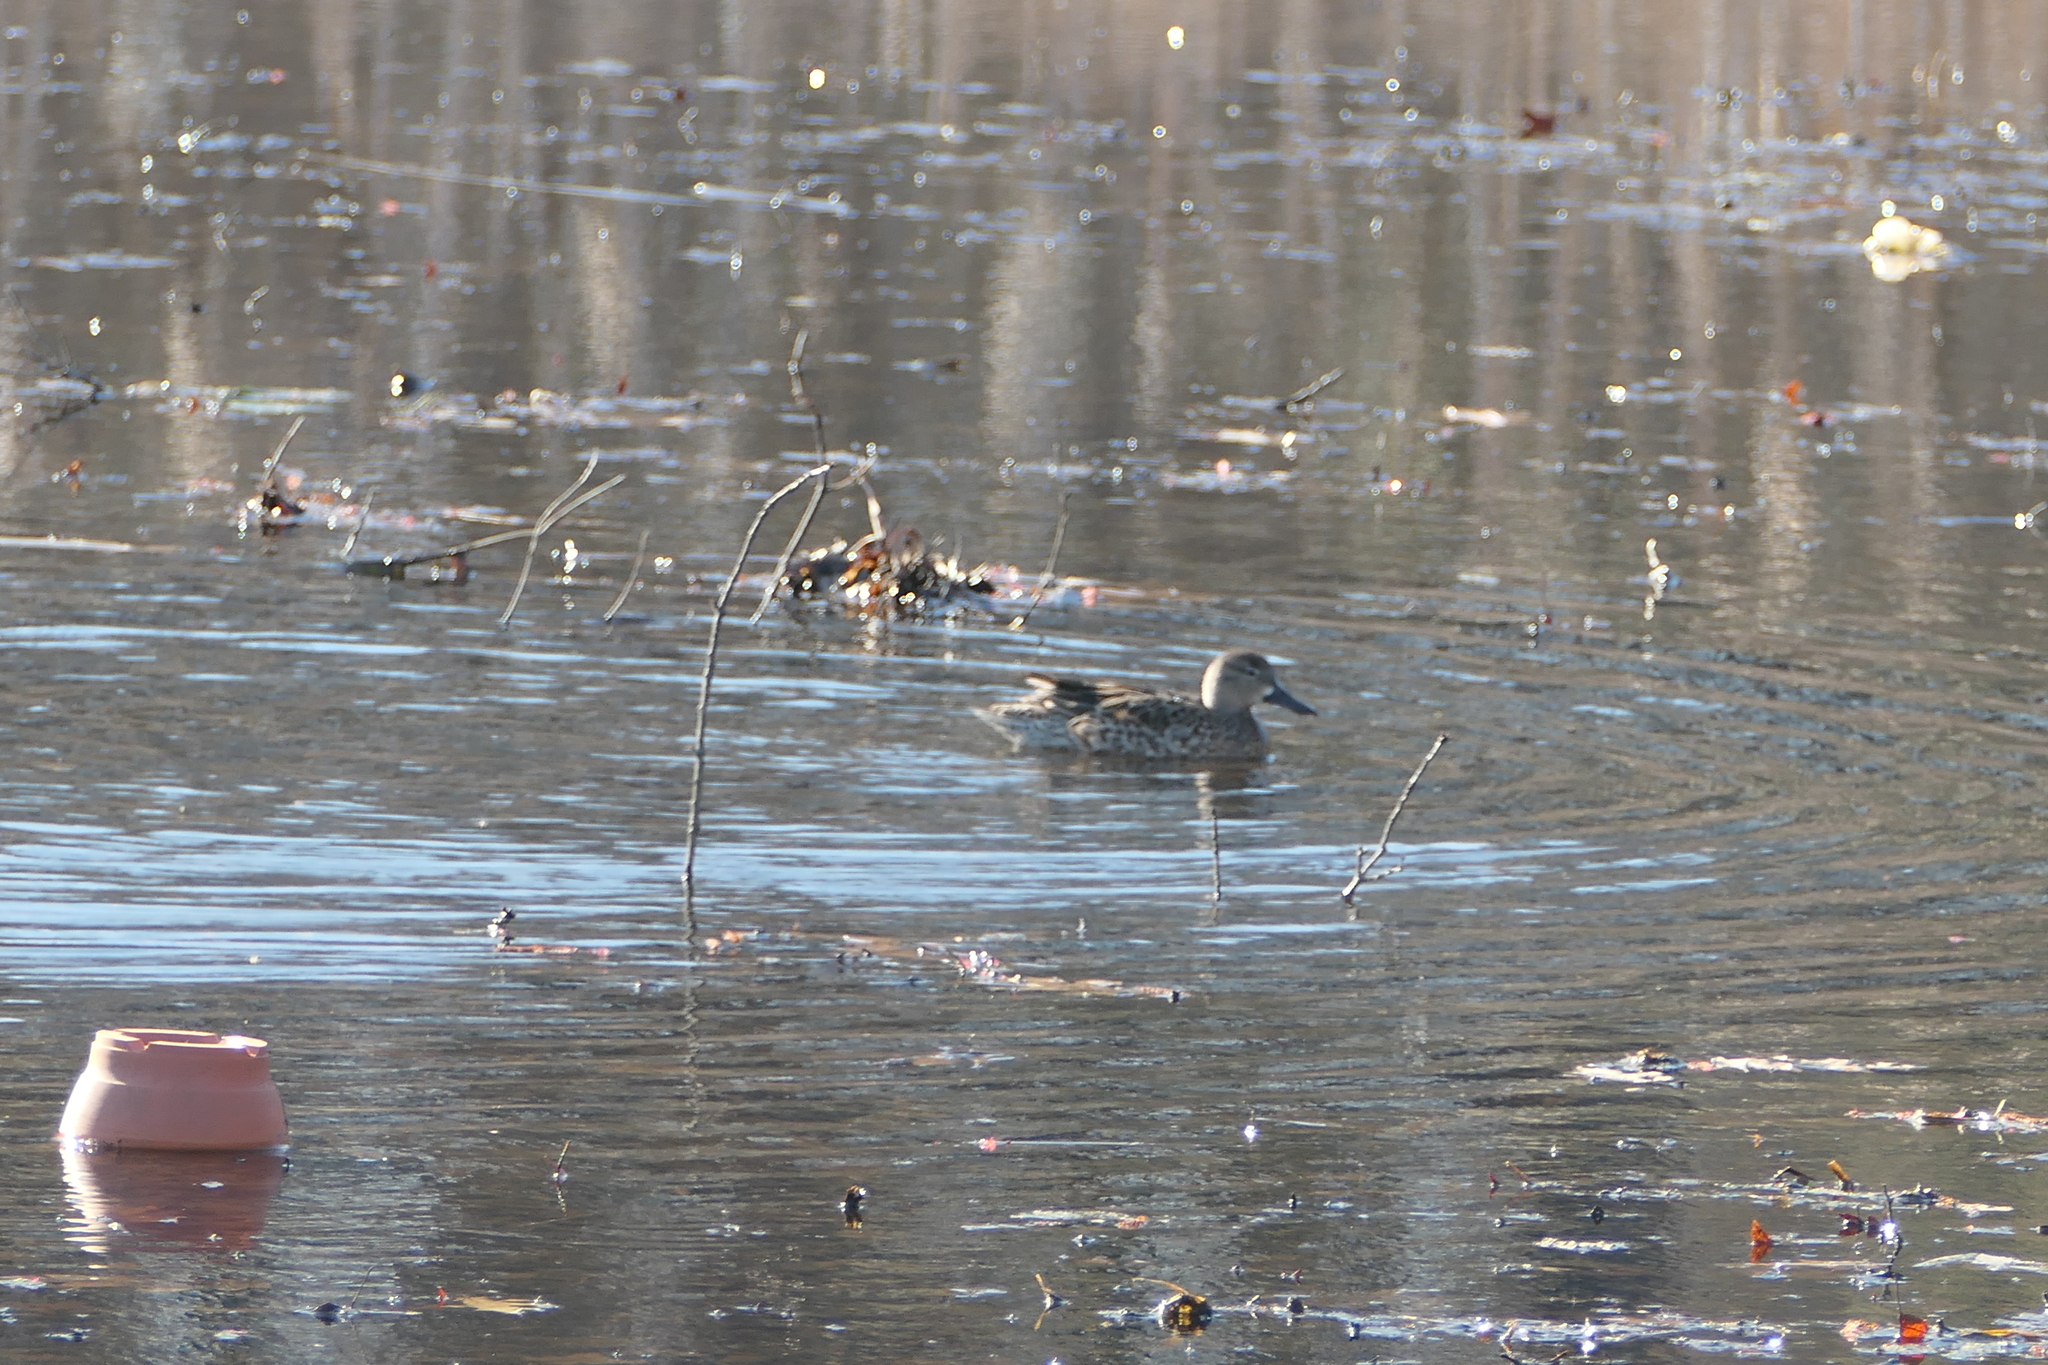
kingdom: Animalia
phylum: Chordata
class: Aves
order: Anseriformes
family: Anatidae
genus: Spatula
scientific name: Spatula discors
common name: Blue-winged teal
